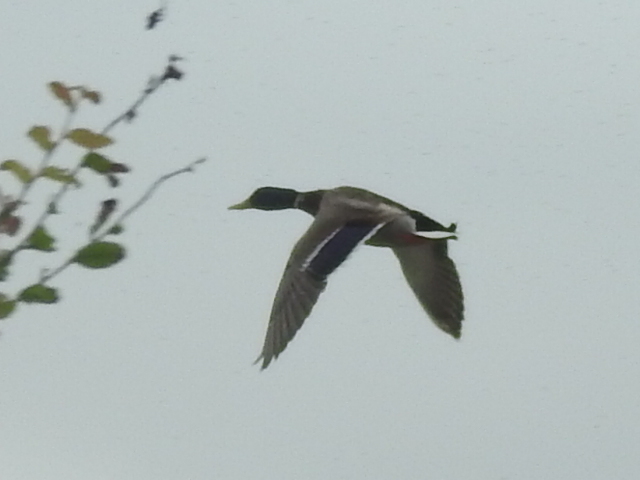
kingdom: Animalia
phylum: Chordata
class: Aves
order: Anseriformes
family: Anatidae
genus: Anas
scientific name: Anas platyrhynchos
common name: Mallard
